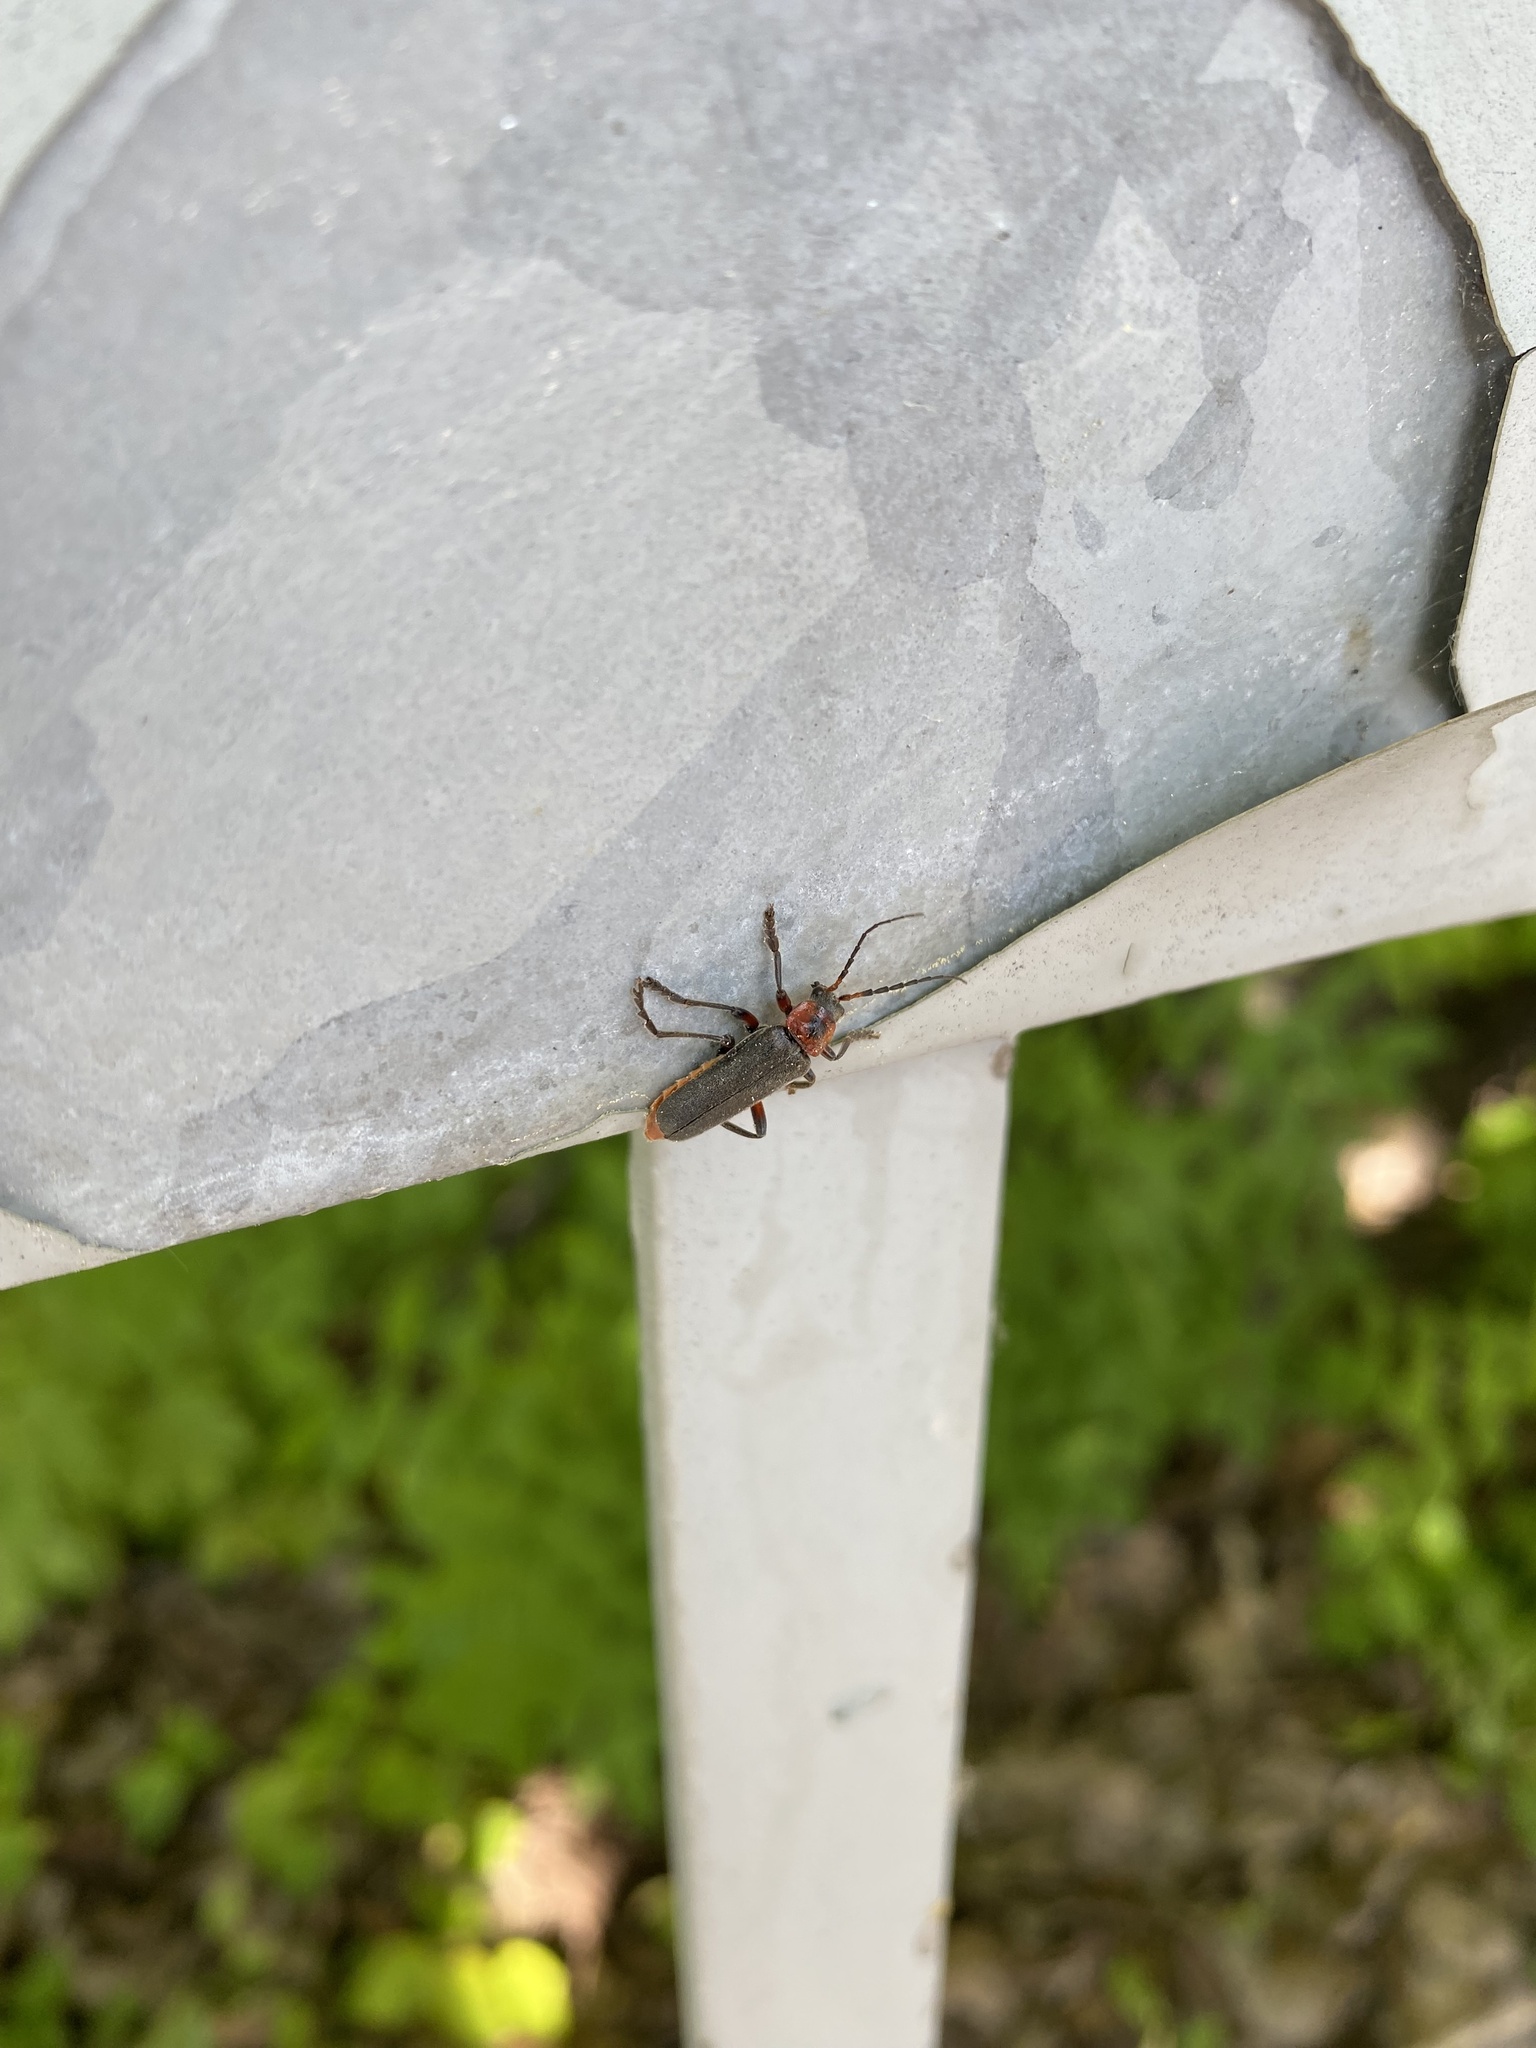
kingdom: Animalia
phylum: Arthropoda
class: Insecta
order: Coleoptera
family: Cantharidae
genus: Cantharis
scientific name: Cantharis rustica
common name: Soldier beetle
